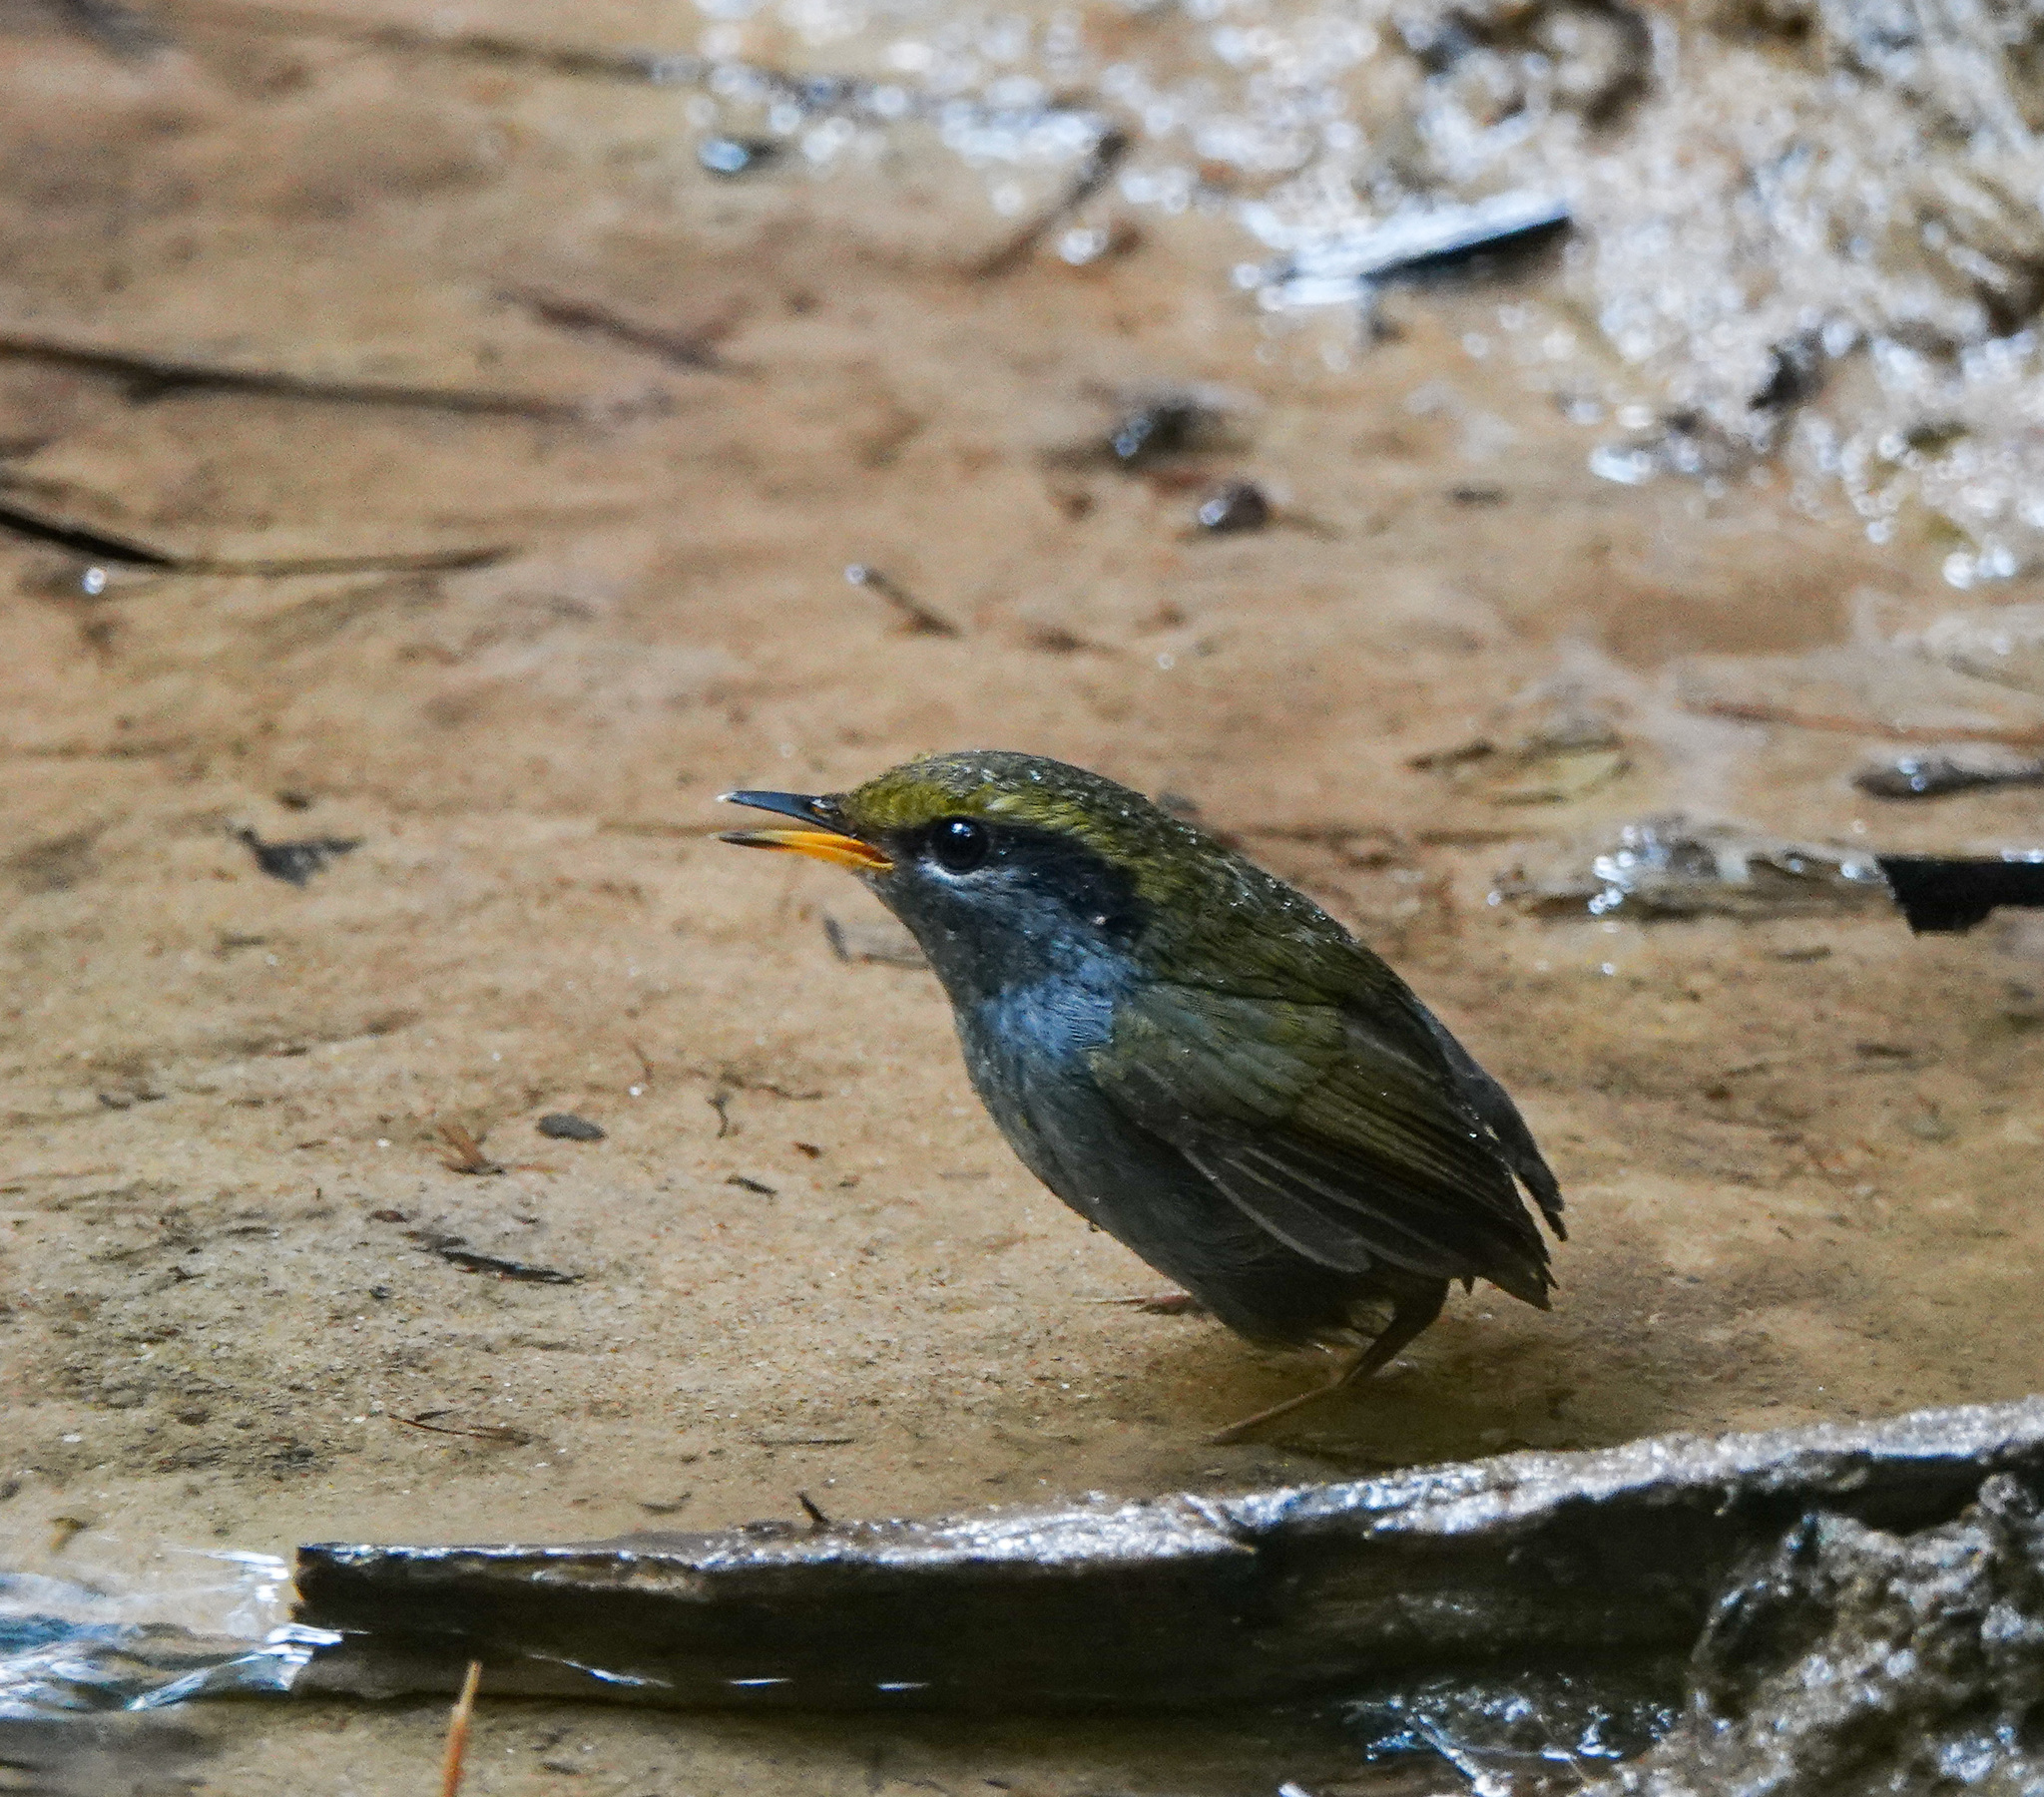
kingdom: Animalia
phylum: Chordata
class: Aves
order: Passeriformes
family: Cettiidae
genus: Tesia
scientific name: Tesia cyaniventer
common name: Grey-bellied tesia
